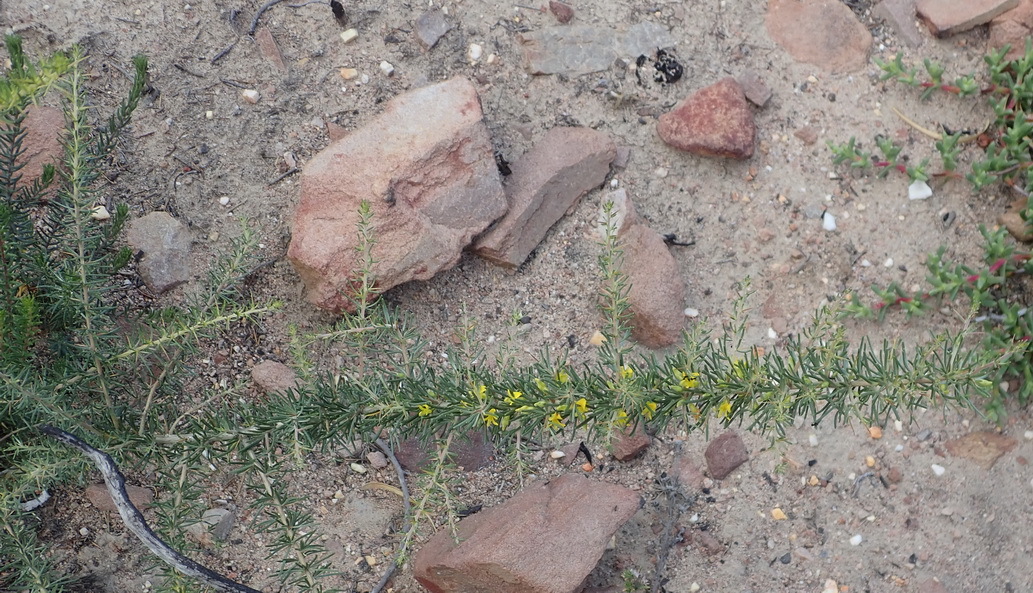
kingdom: Plantae
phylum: Tracheophyta
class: Magnoliopsida
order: Fabales
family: Fabaceae
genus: Aspalathus
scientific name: Aspalathus spinosa
